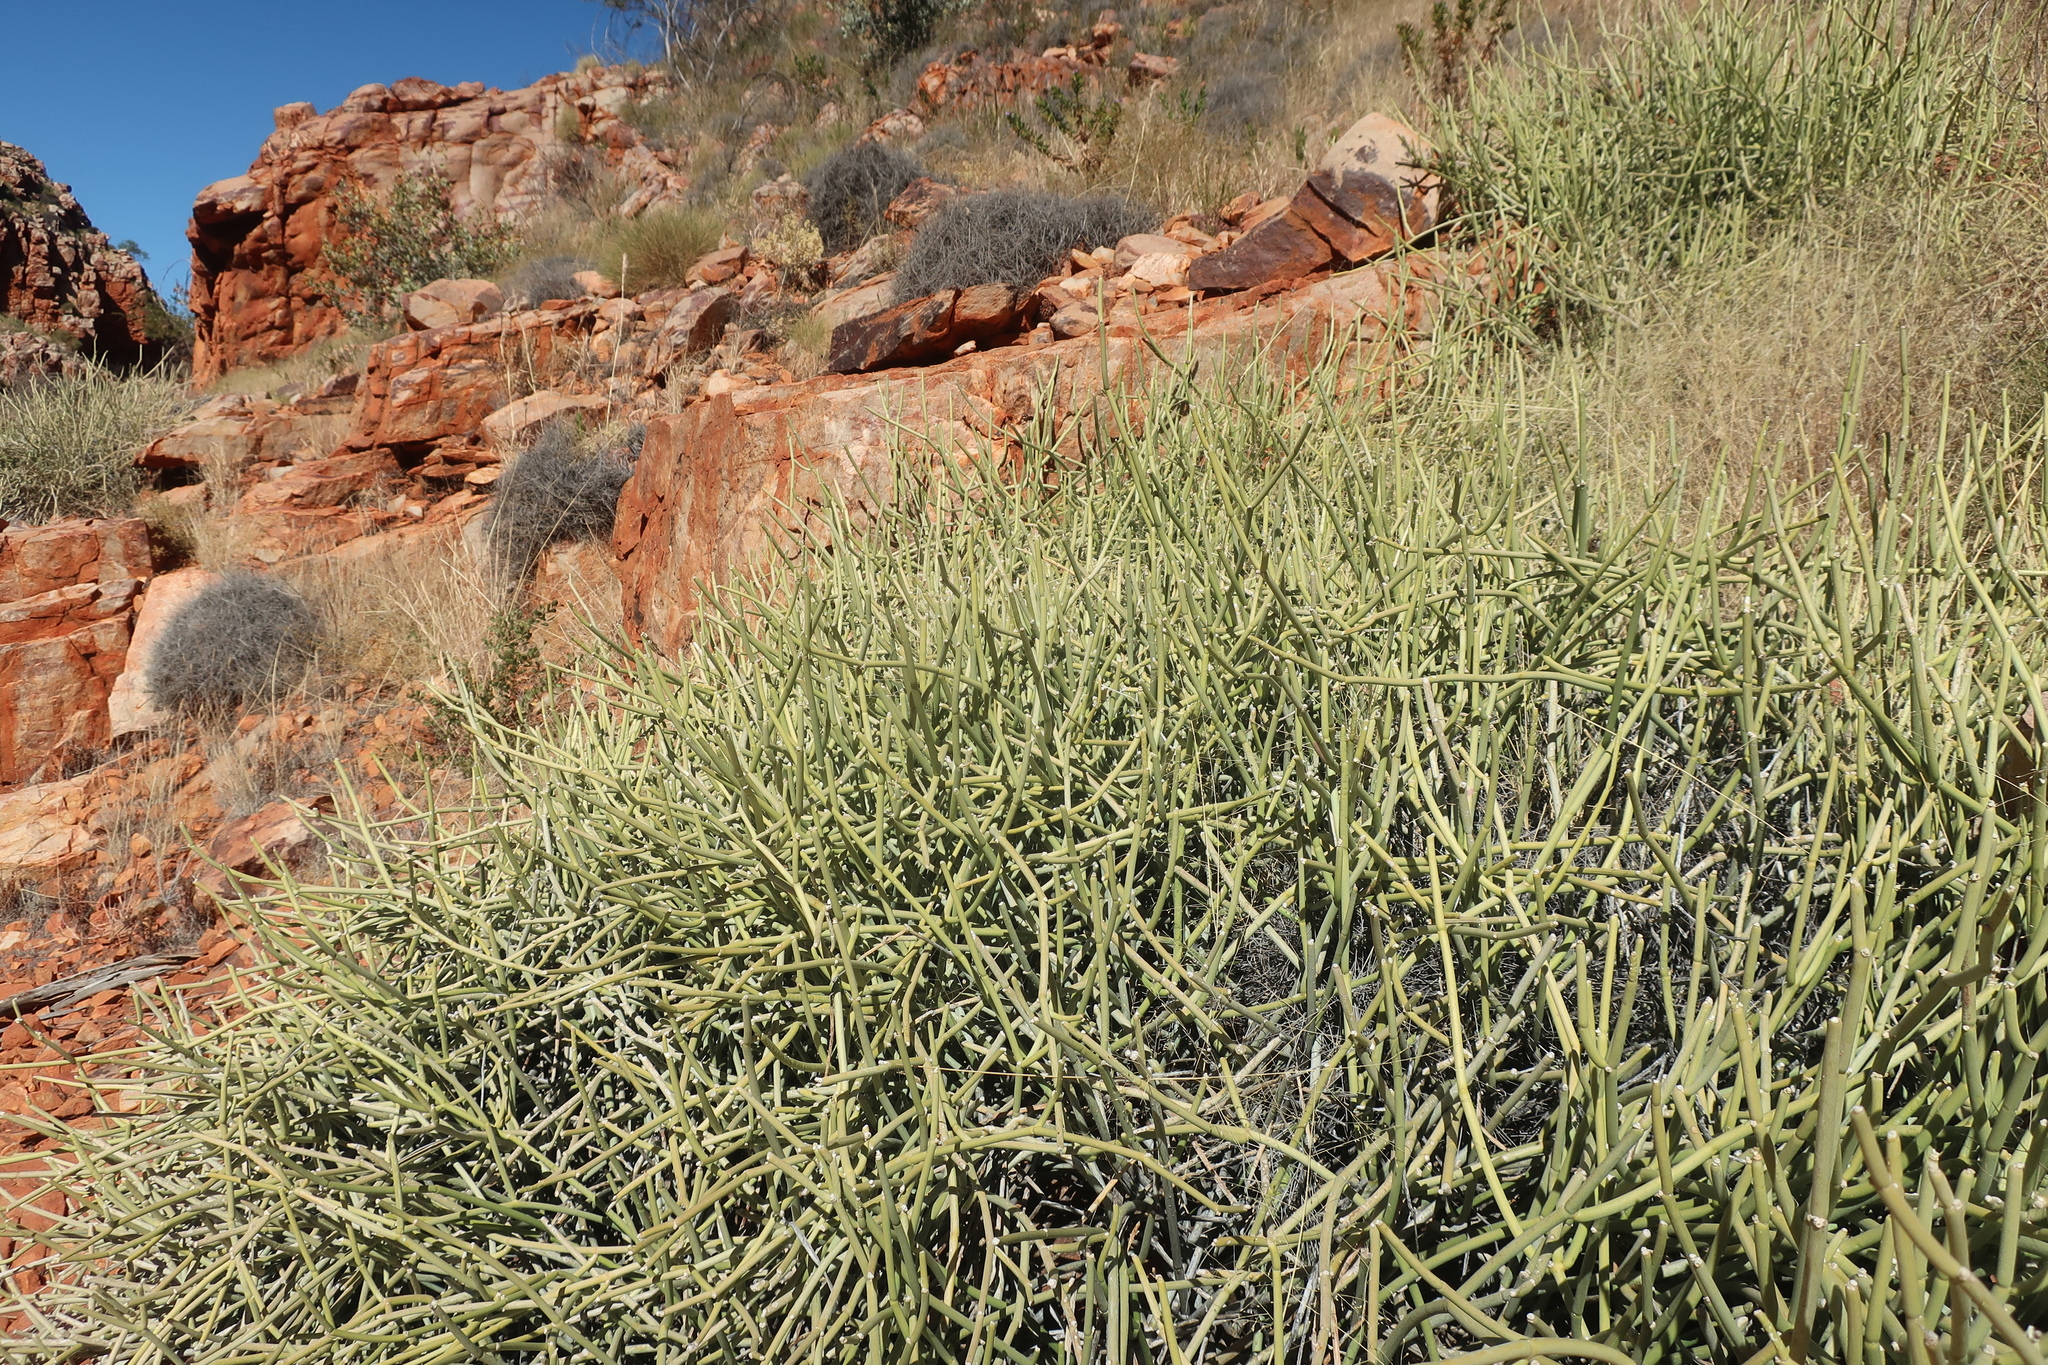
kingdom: Plantae
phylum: Tracheophyta
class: Magnoliopsida
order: Gentianales
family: Apocynaceae
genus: Cynanchum
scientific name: Cynanchum viminale
